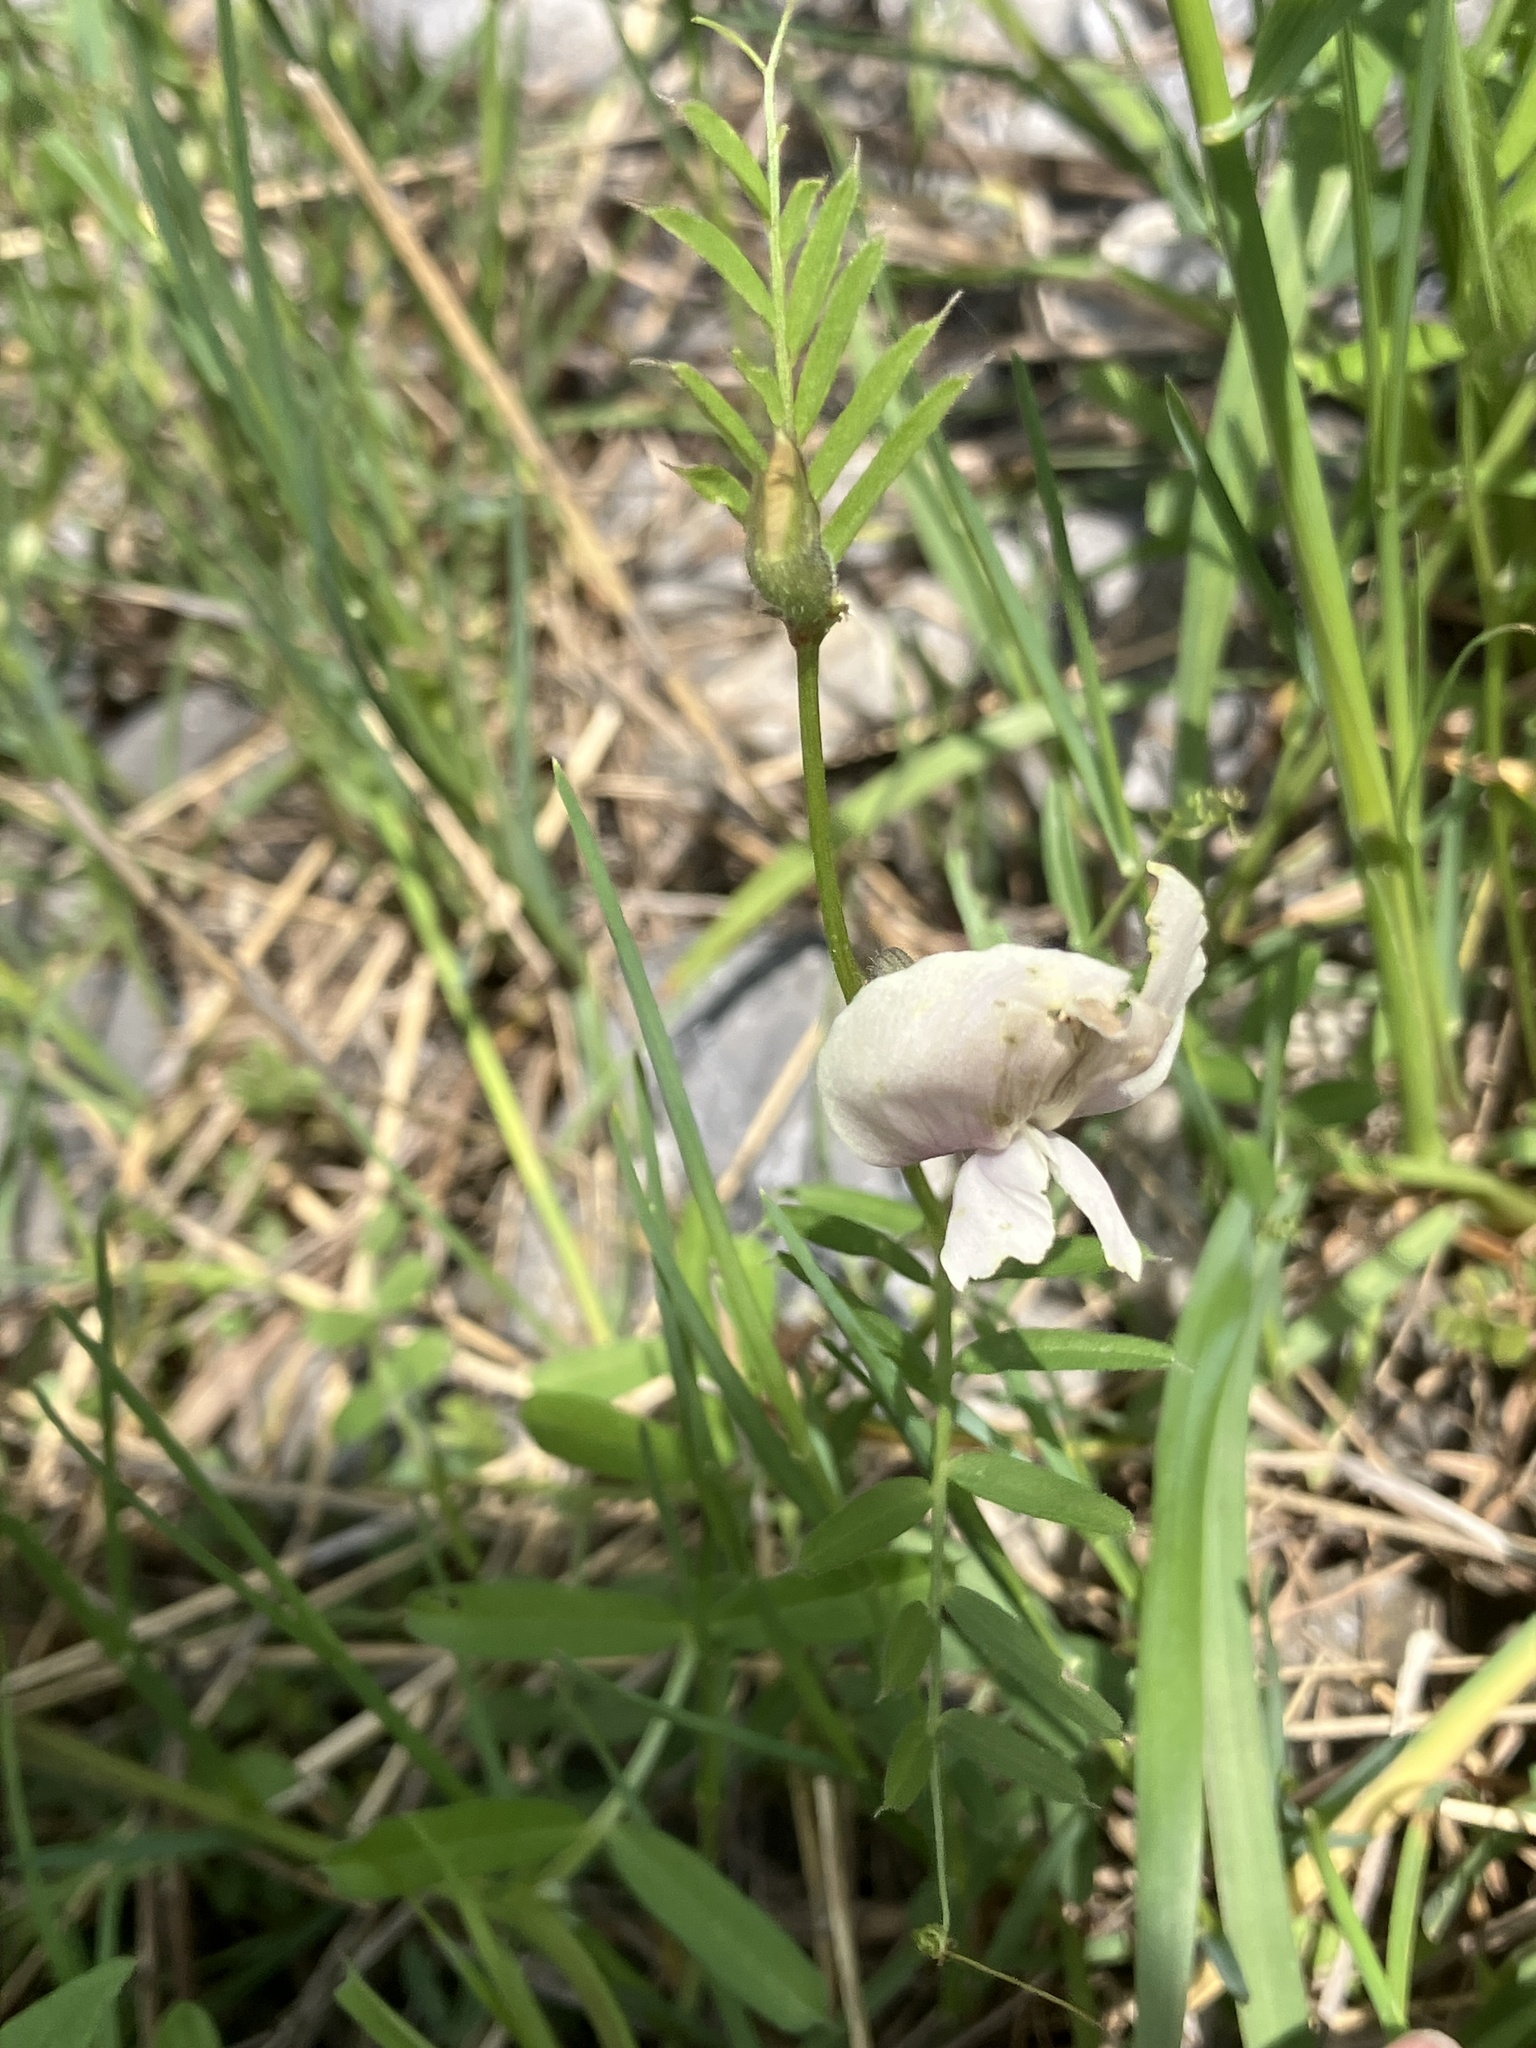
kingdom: Plantae
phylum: Tracheophyta
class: Magnoliopsida
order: Fabales
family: Fabaceae
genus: Vicia
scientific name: Vicia grandiflora
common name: Large yellow vetch
